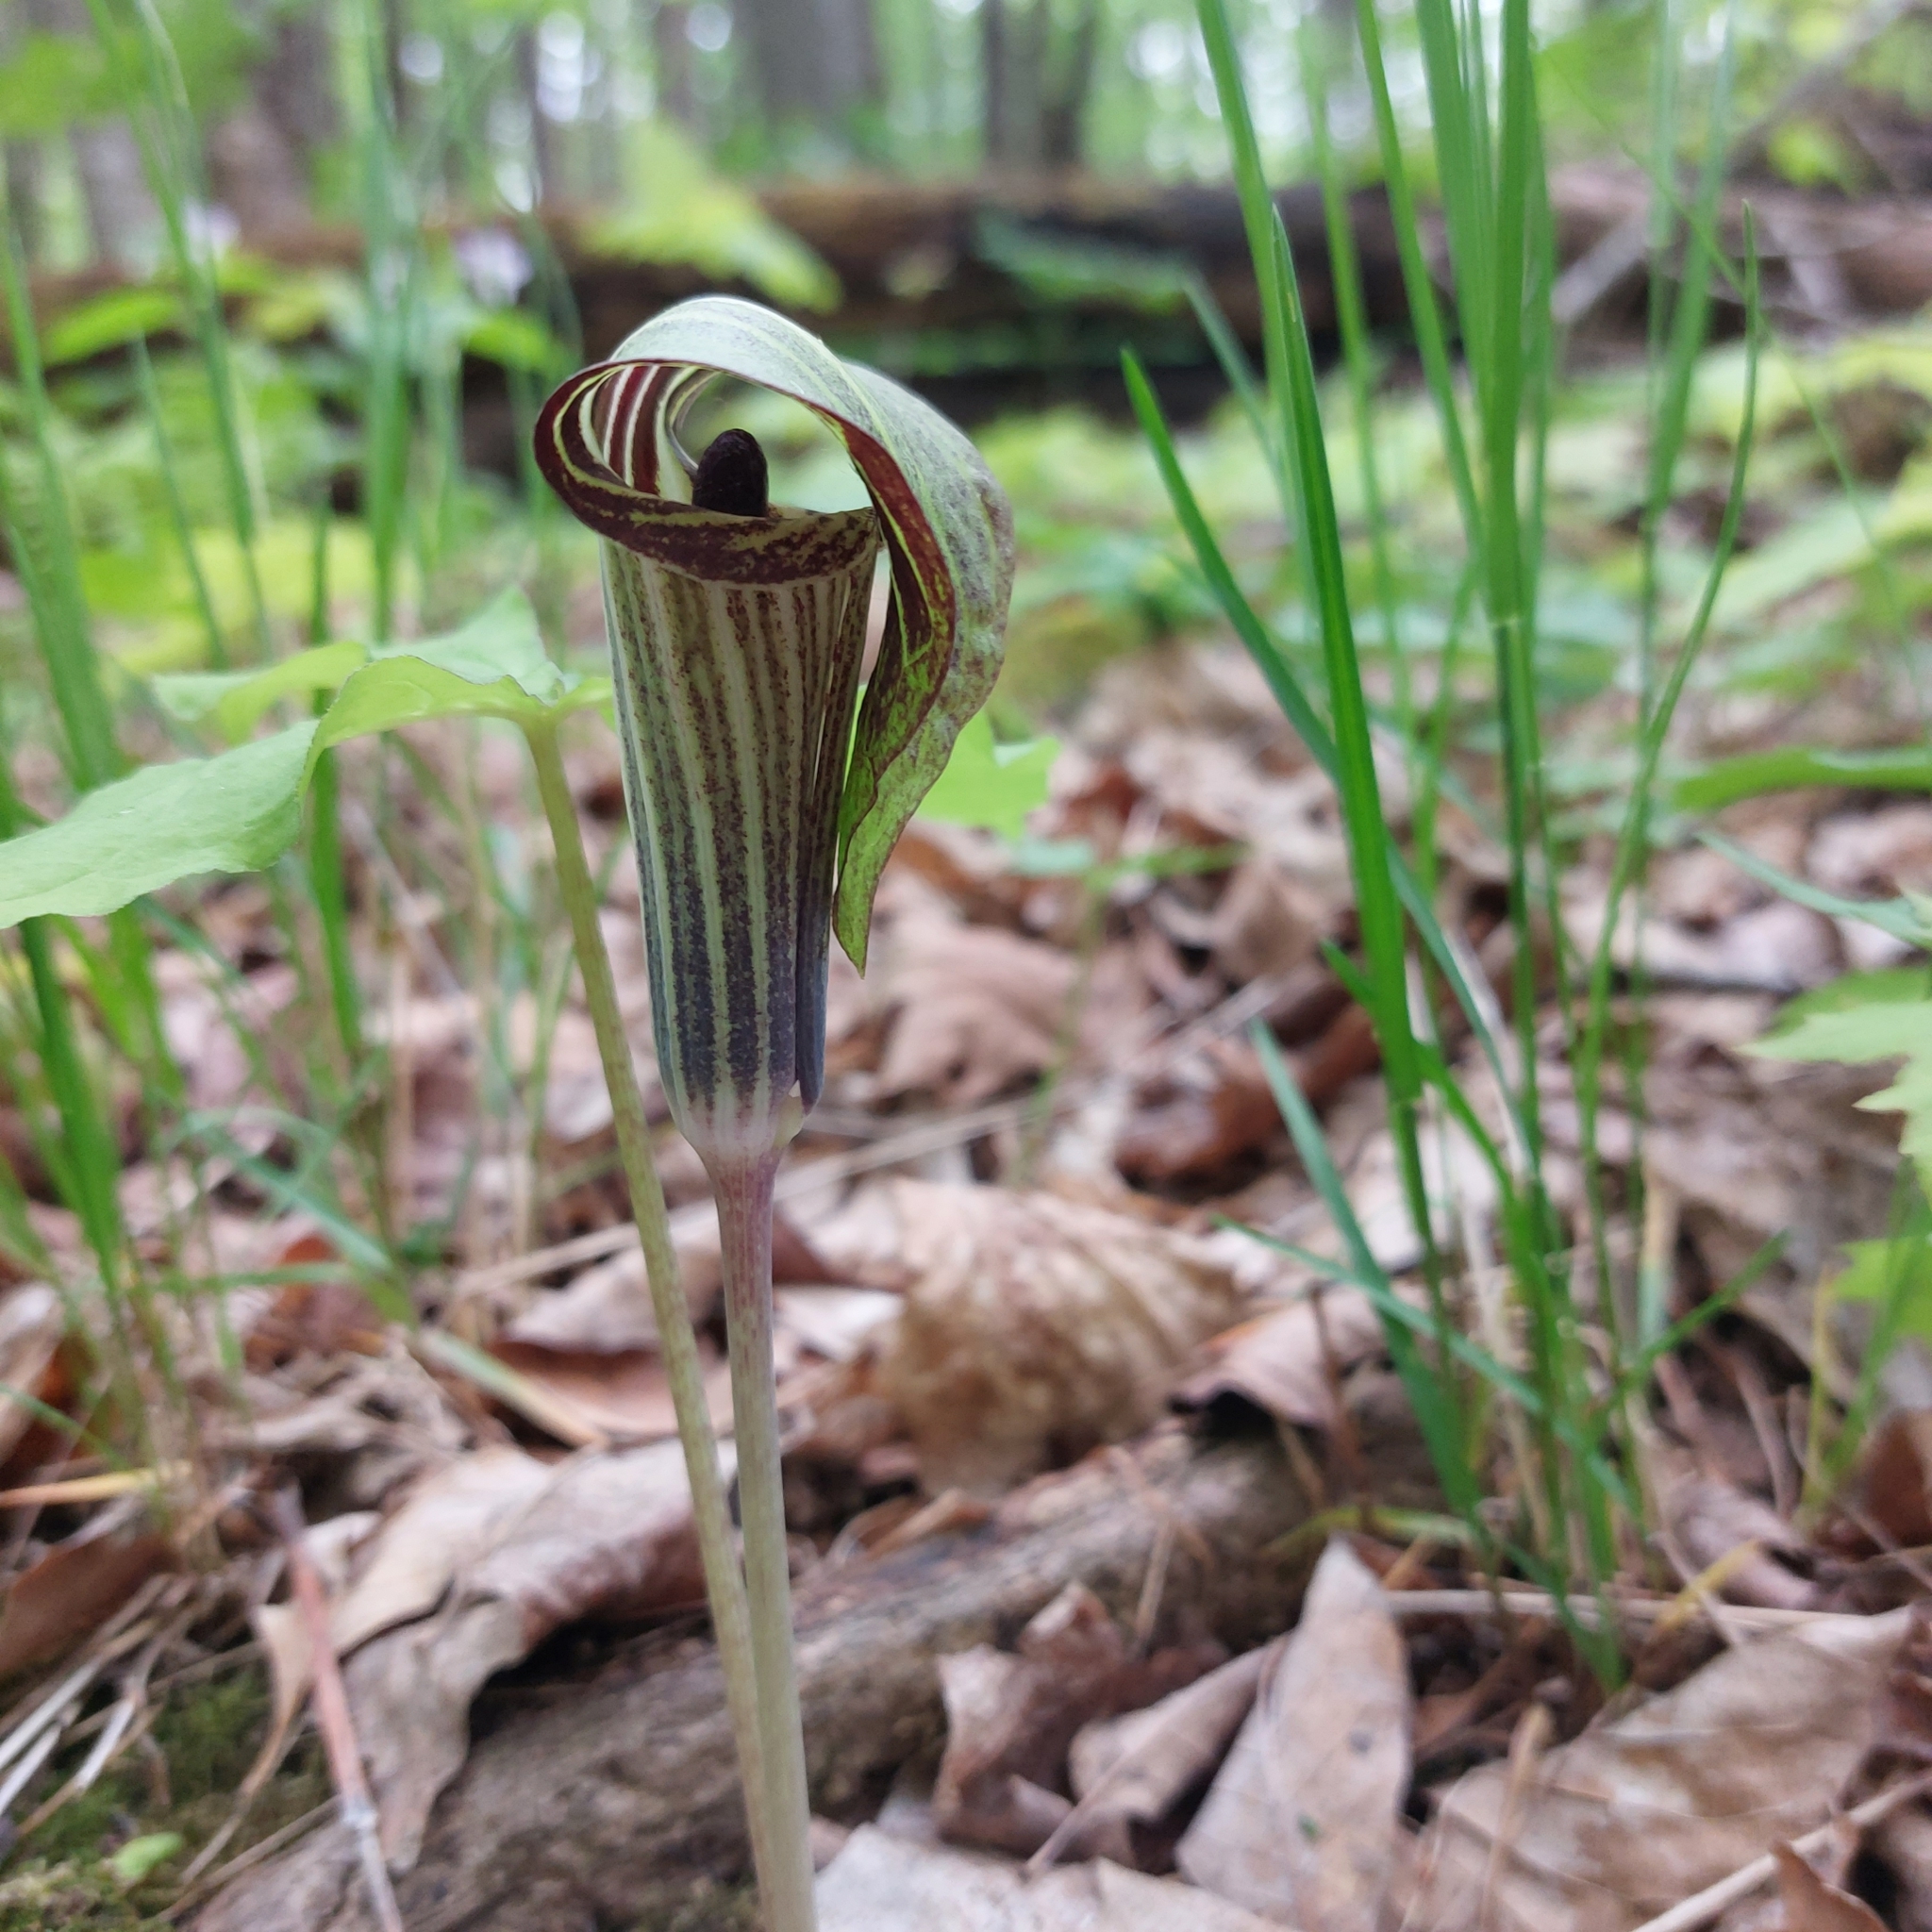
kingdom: Plantae
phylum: Tracheophyta
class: Liliopsida
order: Alismatales
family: Araceae
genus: Arisaema
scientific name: Arisaema triphyllum
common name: Jack-in-the-pulpit
